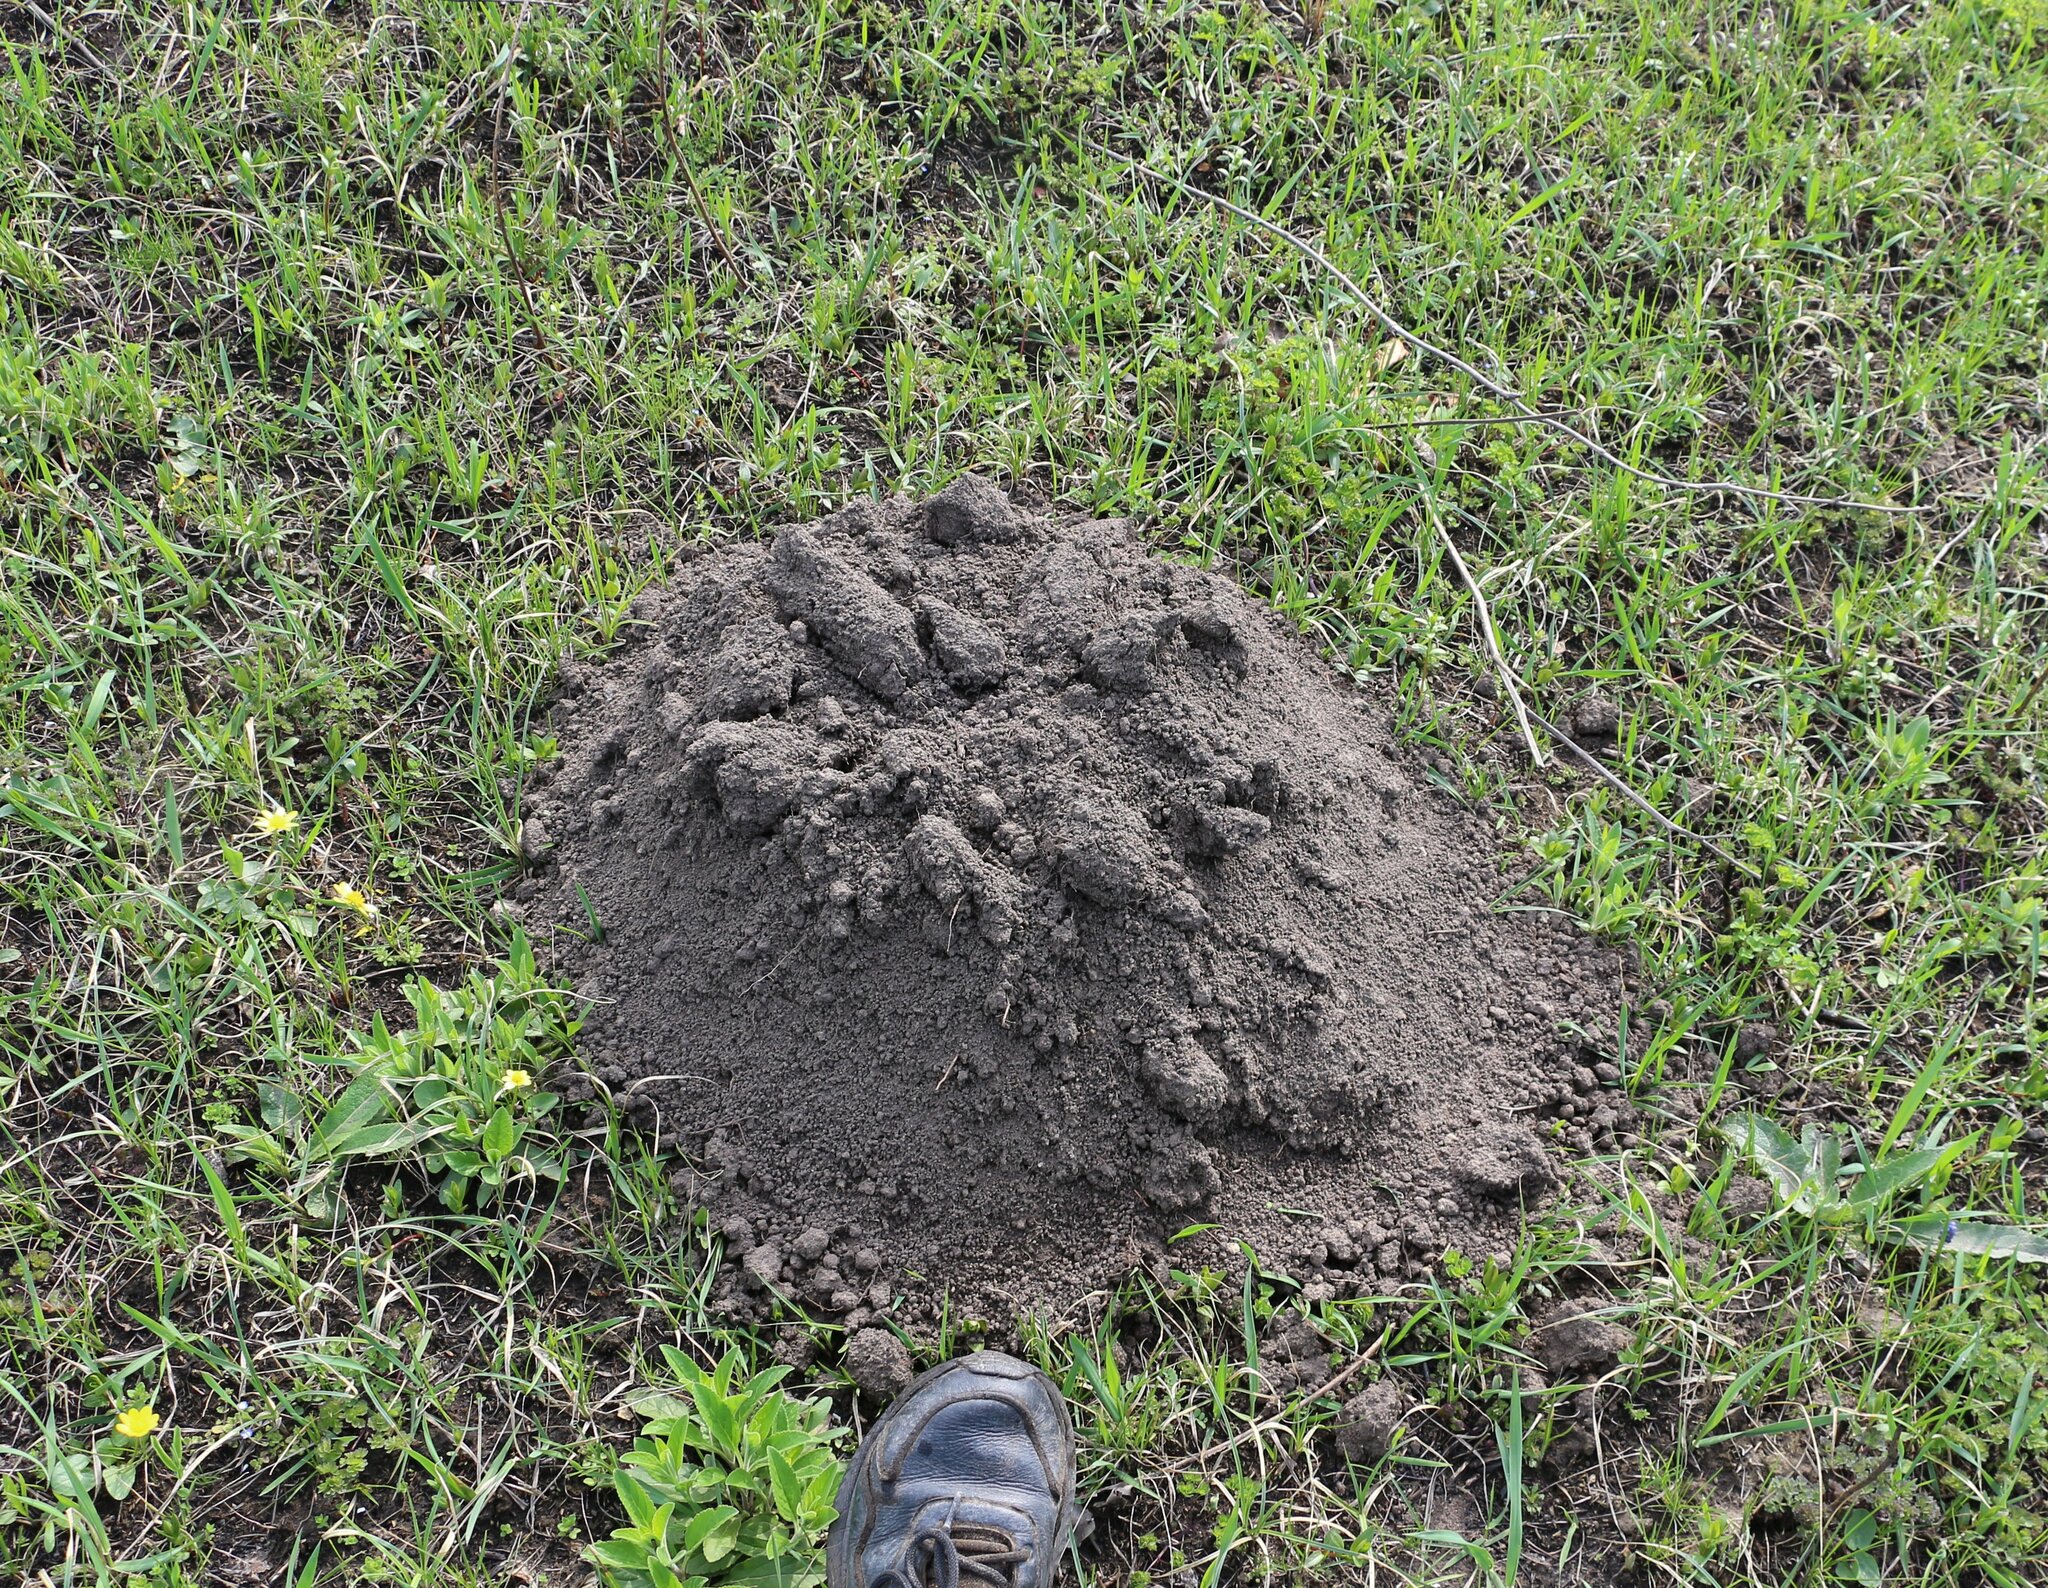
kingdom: Animalia
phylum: Chordata
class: Mammalia
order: Rodentia
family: Spalacidae
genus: Spalax
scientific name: Spalax microphthalmus
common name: Greater mole rat
